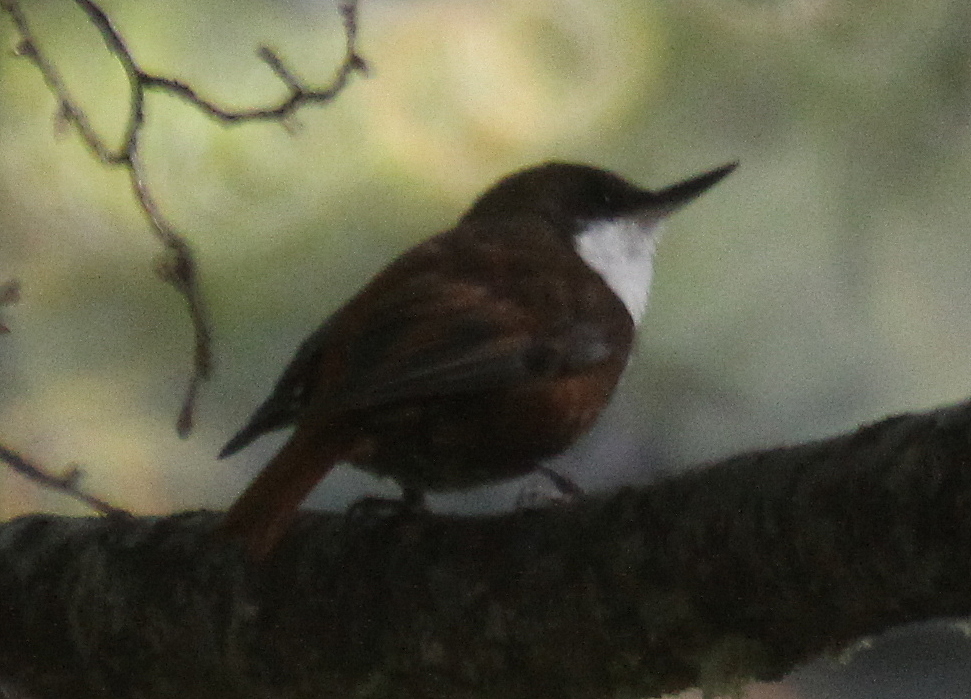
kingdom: Animalia
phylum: Chordata
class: Aves
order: Passeriformes
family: Furnariidae
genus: Pygarrhichas
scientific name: Pygarrhichas albogularis
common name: White-throated treerunner
